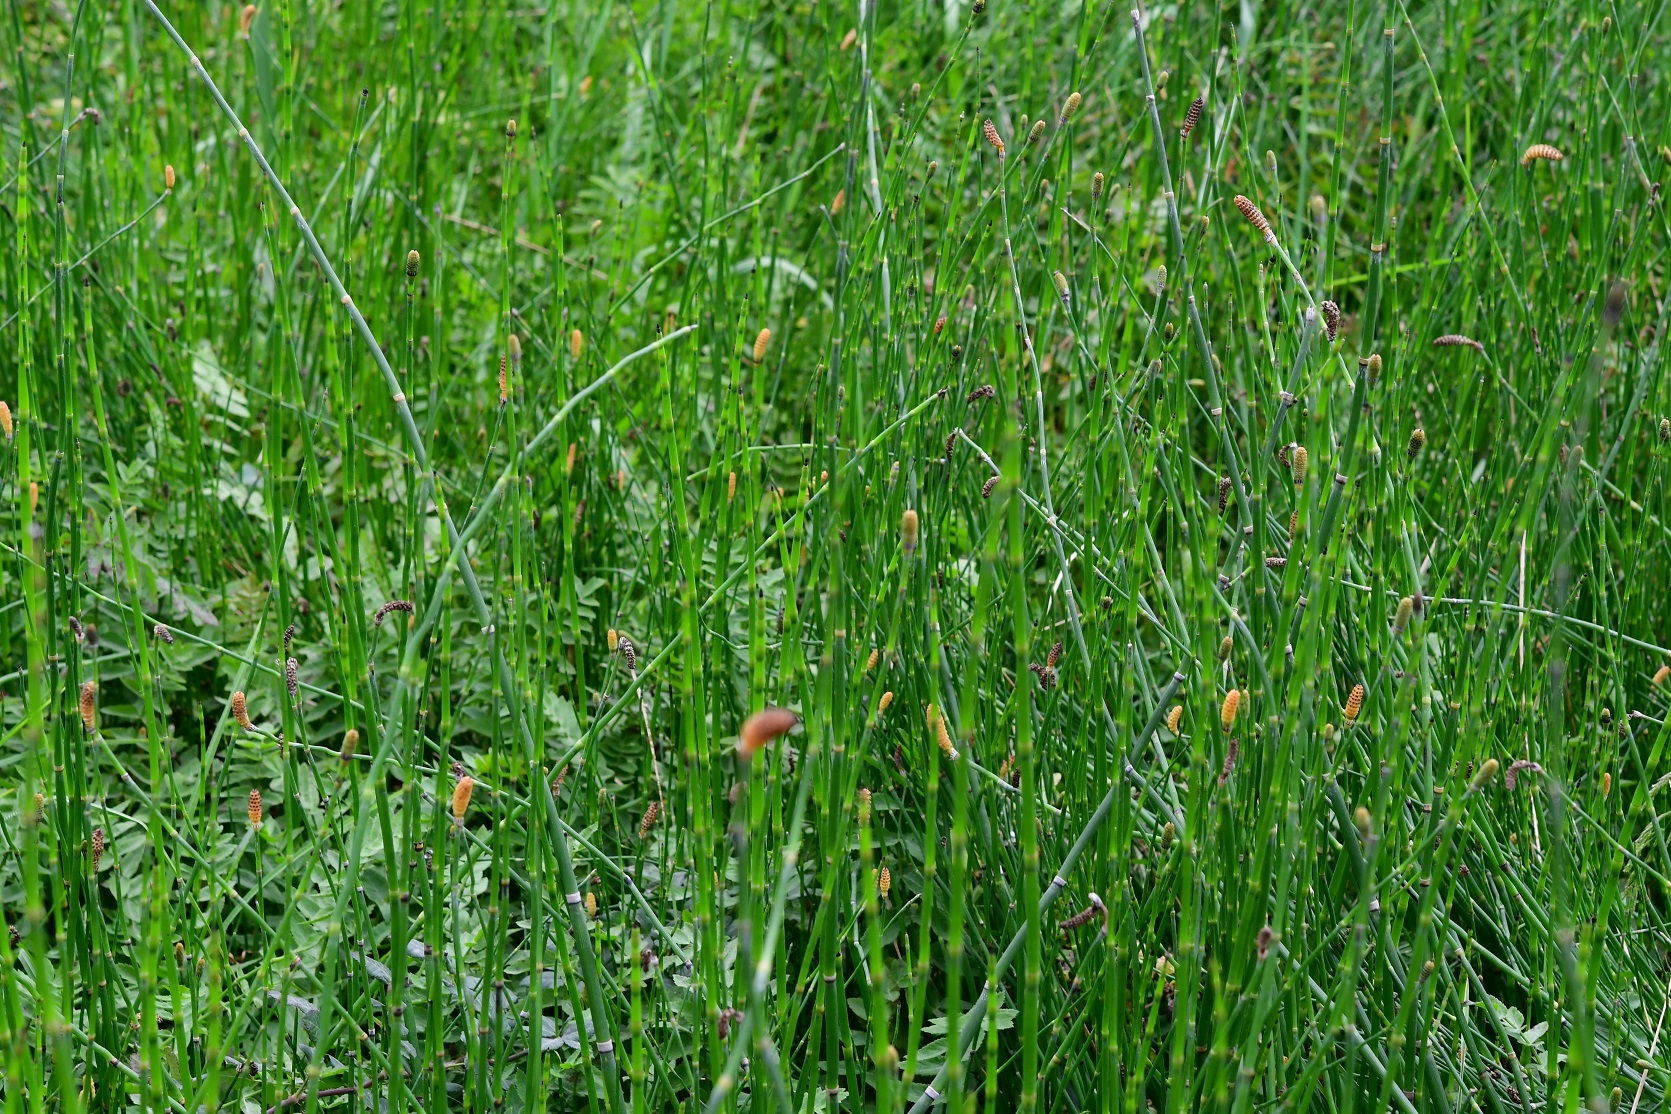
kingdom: Plantae
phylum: Tracheophyta
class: Polypodiopsida
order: Equisetales
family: Equisetaceae
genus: Equisetum
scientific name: Equisetum praealtum
